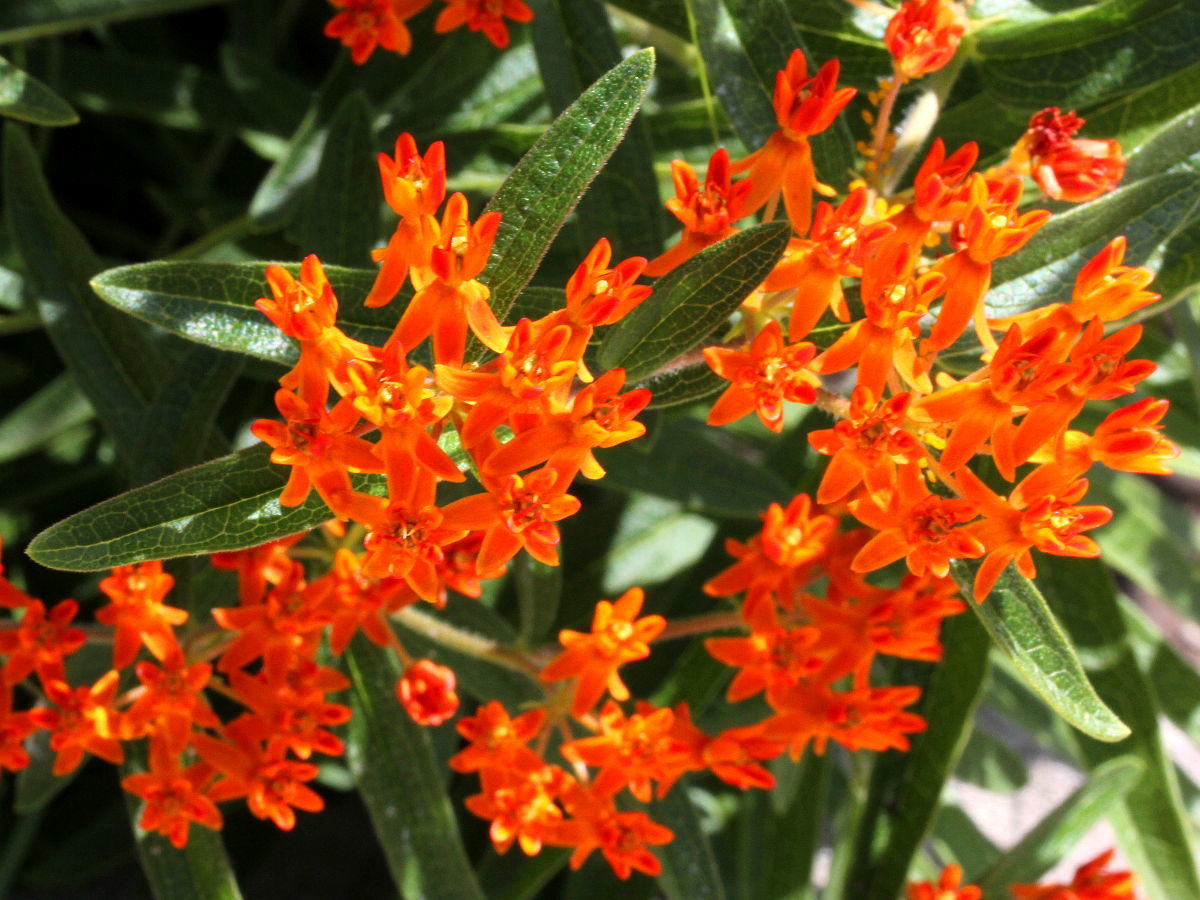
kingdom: Plantae
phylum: Tracheophyta
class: Magnoliopsida
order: Gentianales
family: Apocynaceae
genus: Asclepias
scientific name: Asclepias tuberosa
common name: Butterfly milkweed
